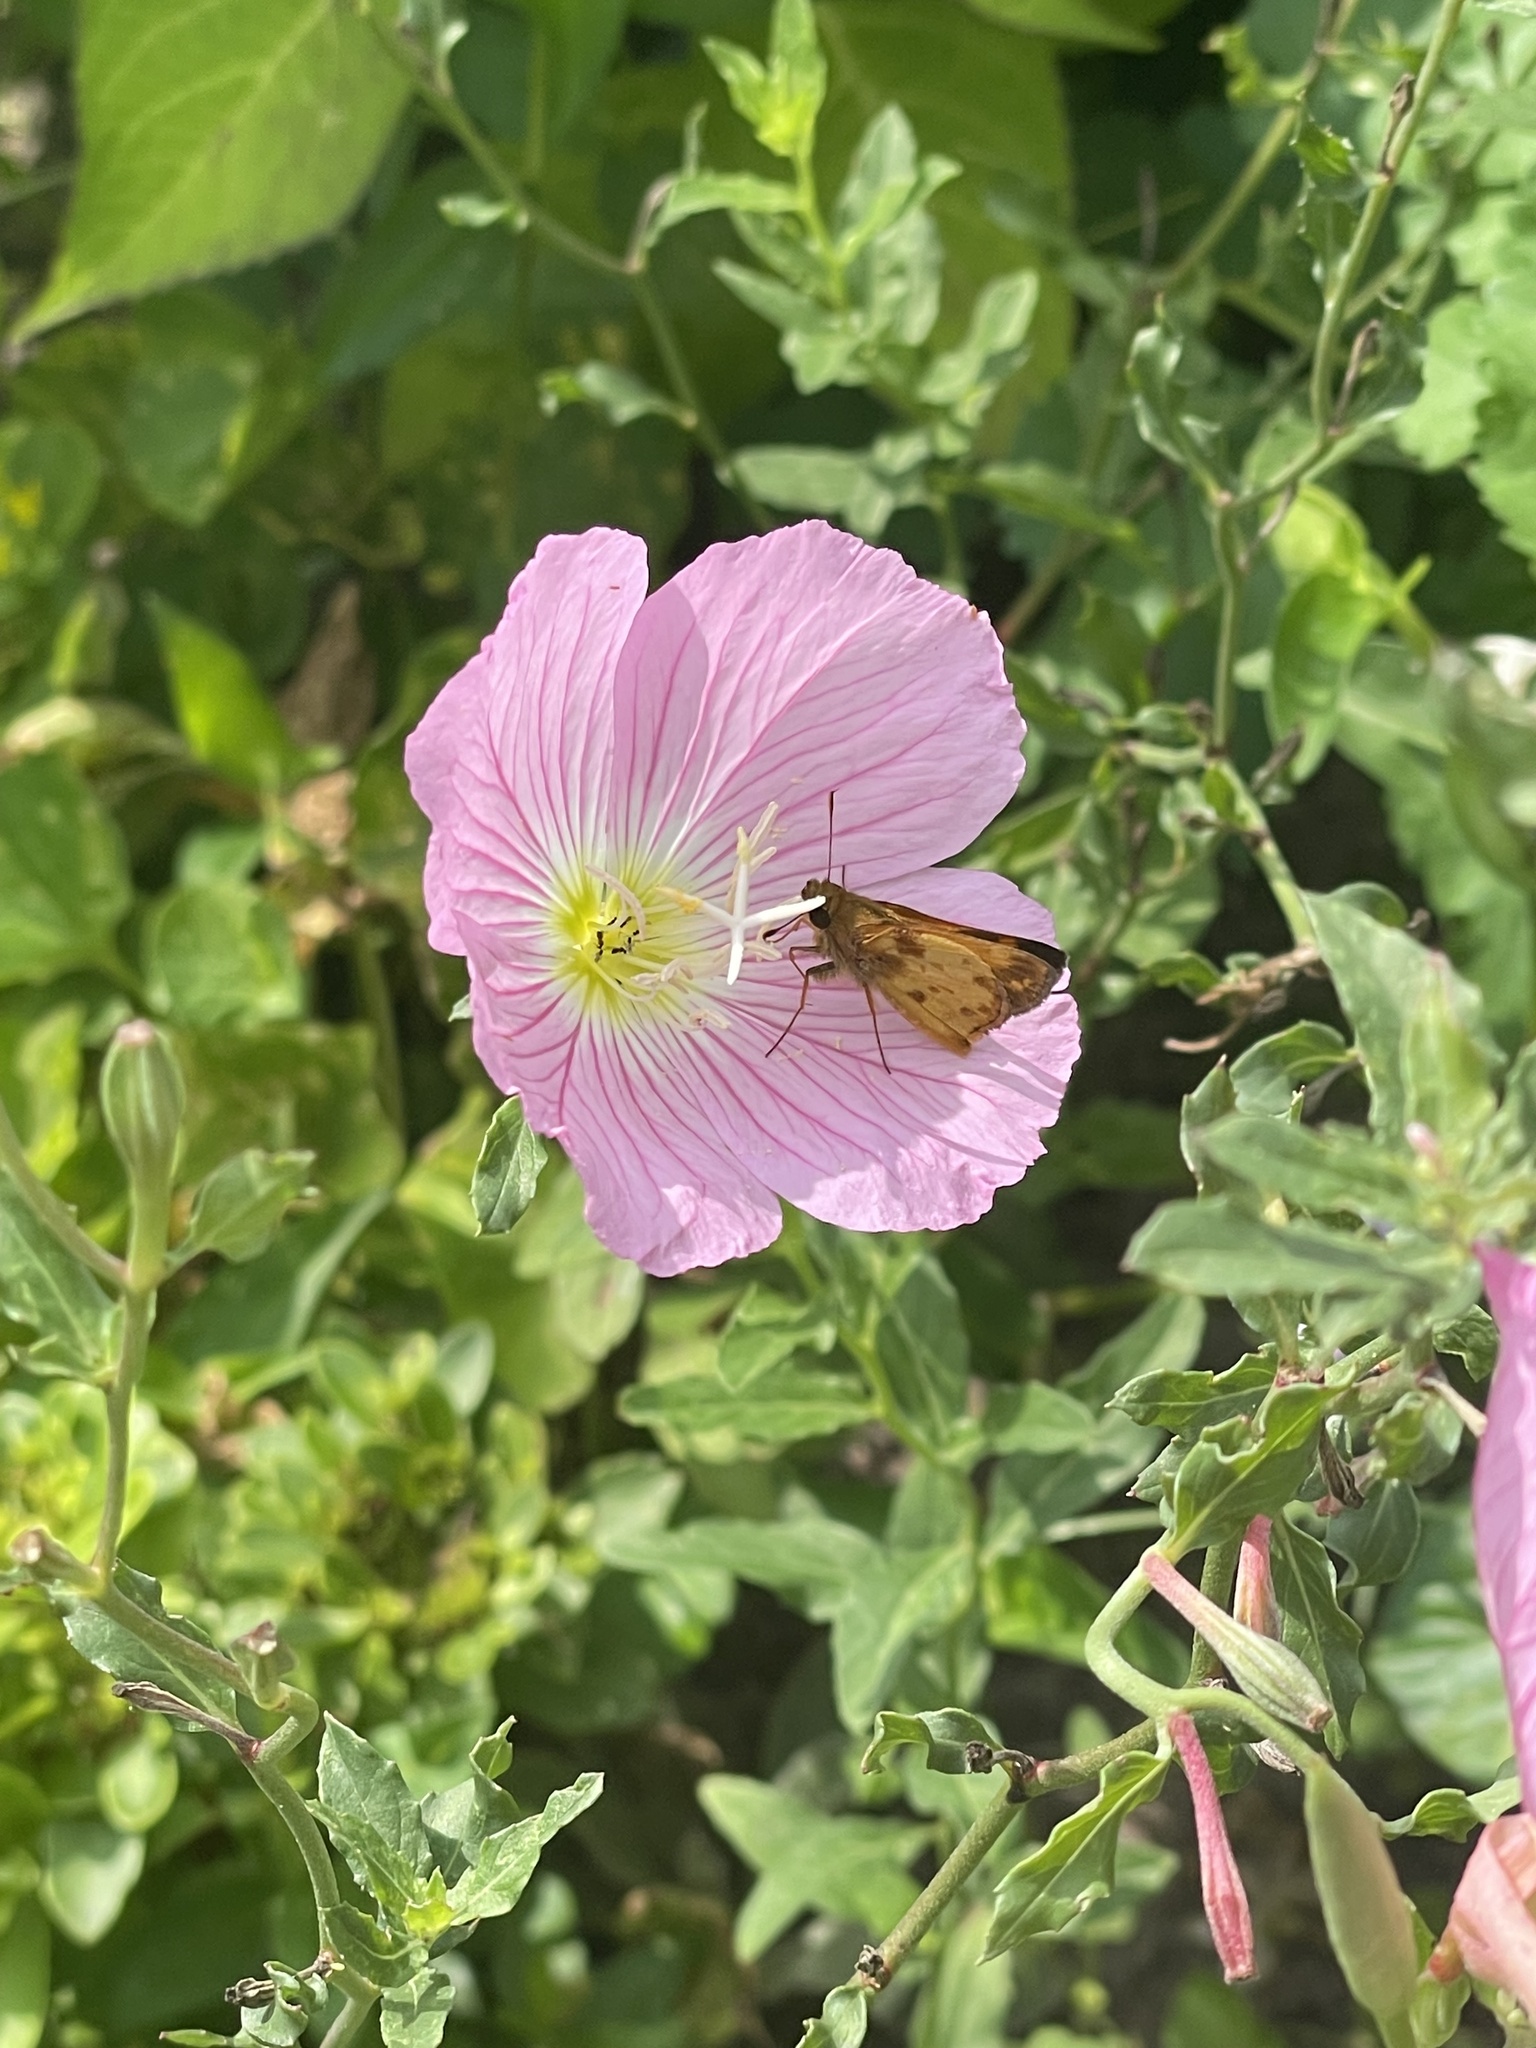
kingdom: Animalia
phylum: Arthropoda
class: Insecta
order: Lepidoptera
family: Hesperiidae
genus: Lon
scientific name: Lon zabulon
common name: Zabulon skipper
